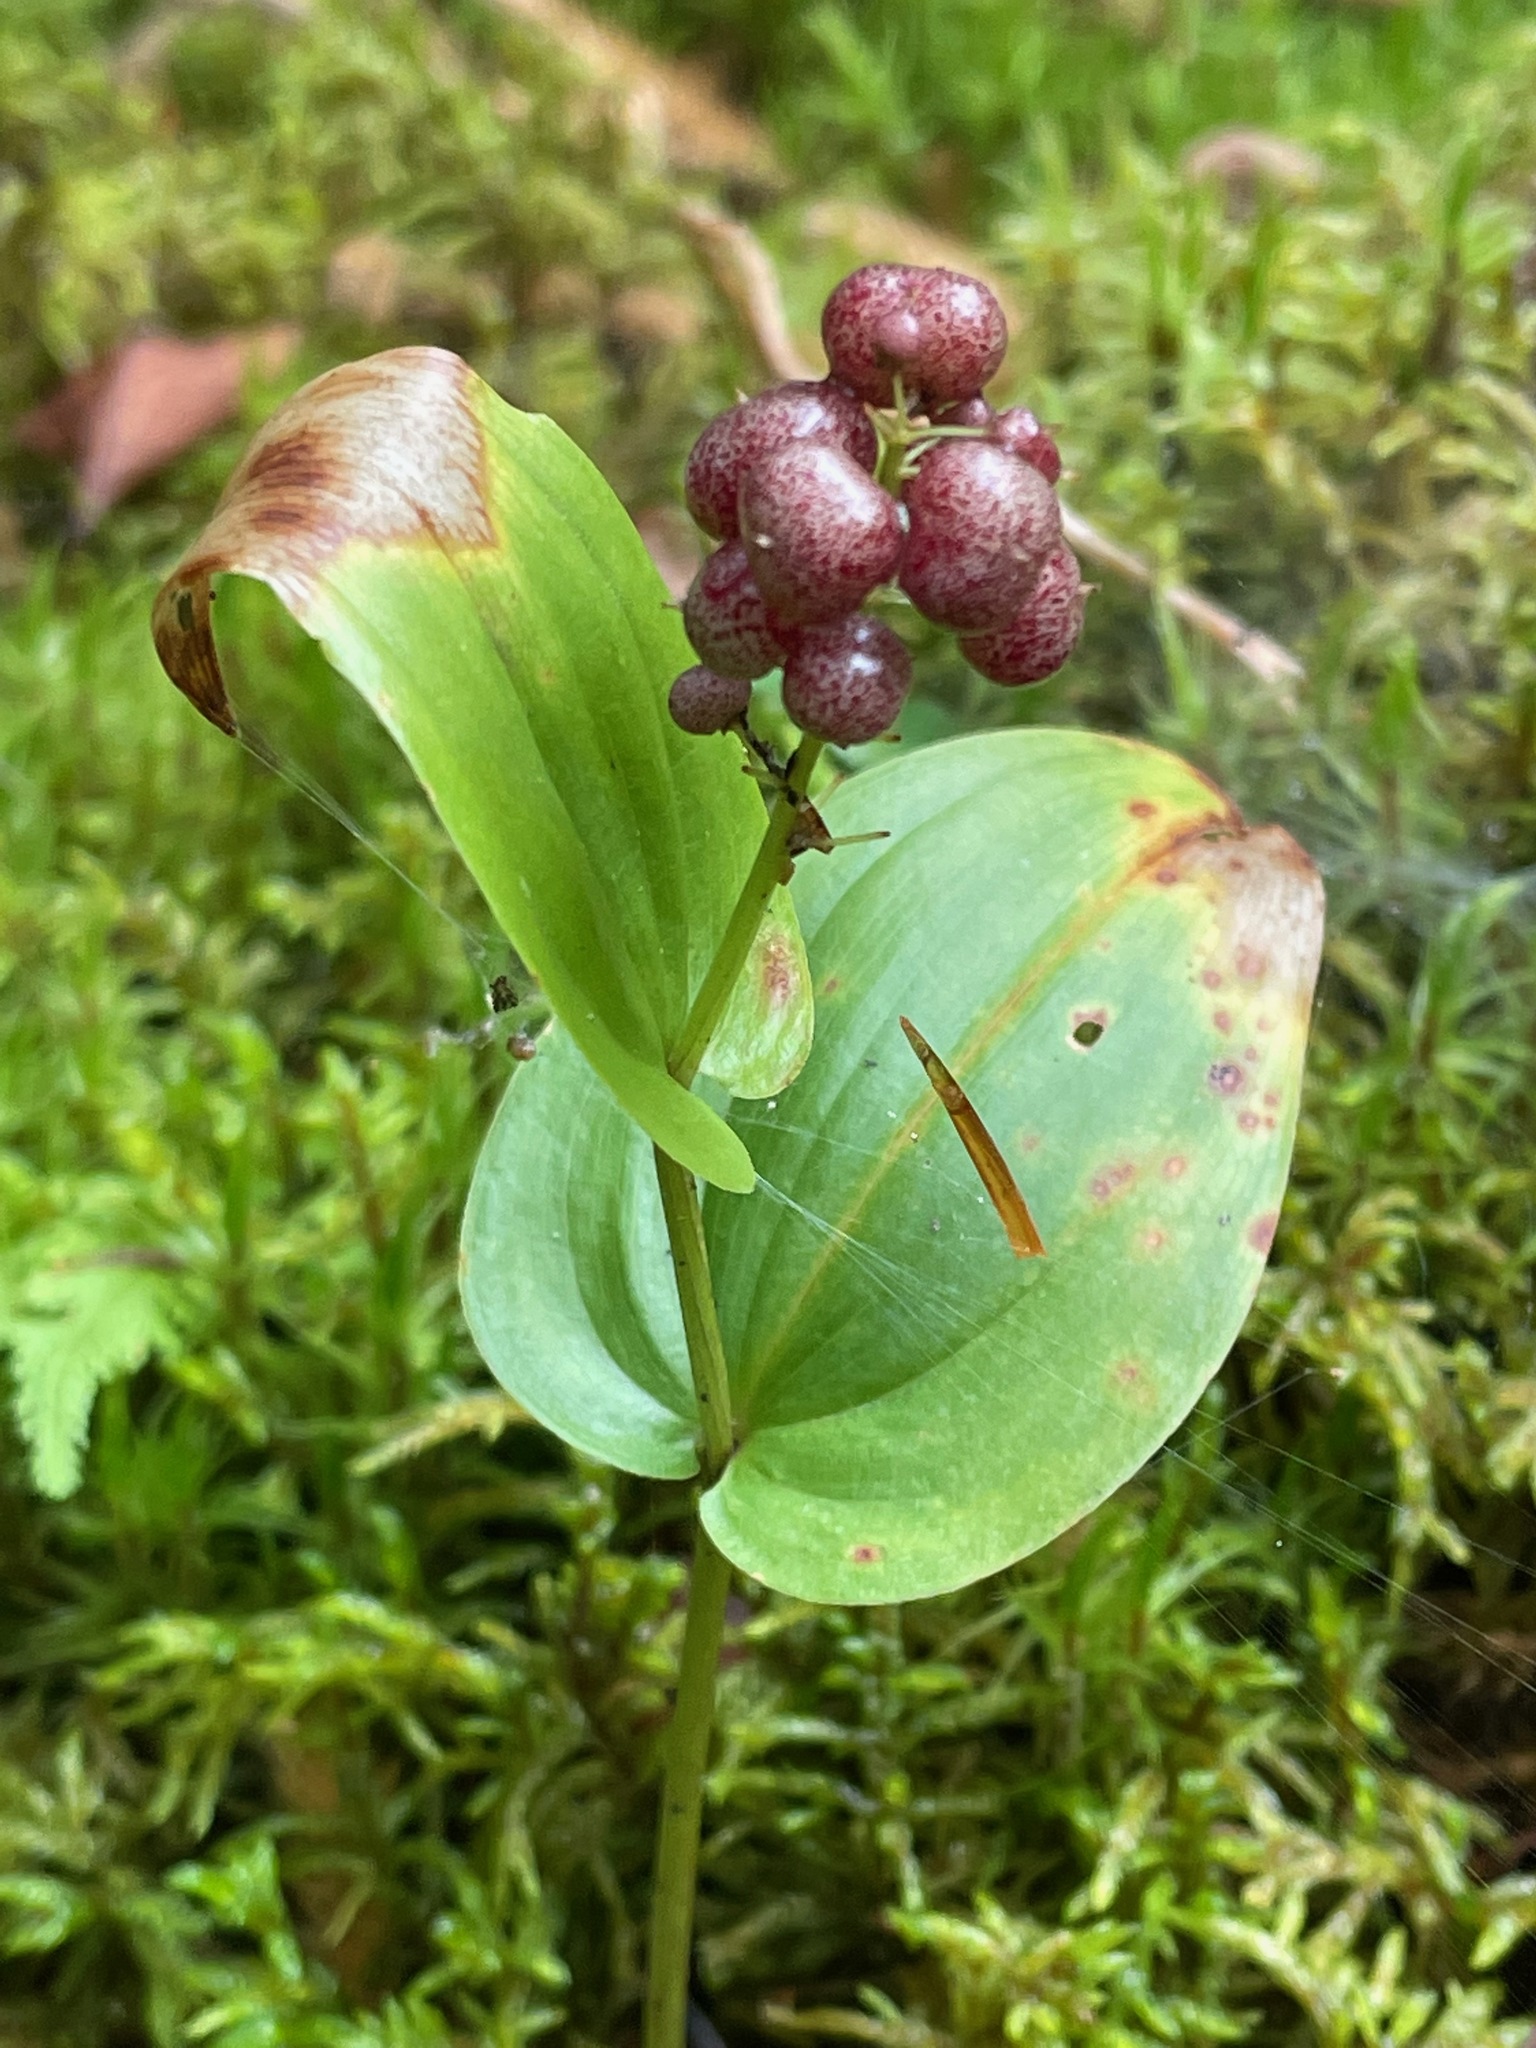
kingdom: Plantae
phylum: Tracheophyta
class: Liliopsida
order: Asparagales
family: Asparagaceae
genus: Maianthemum
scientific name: Maianthemum canadense
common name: False lily-of-the-valley
